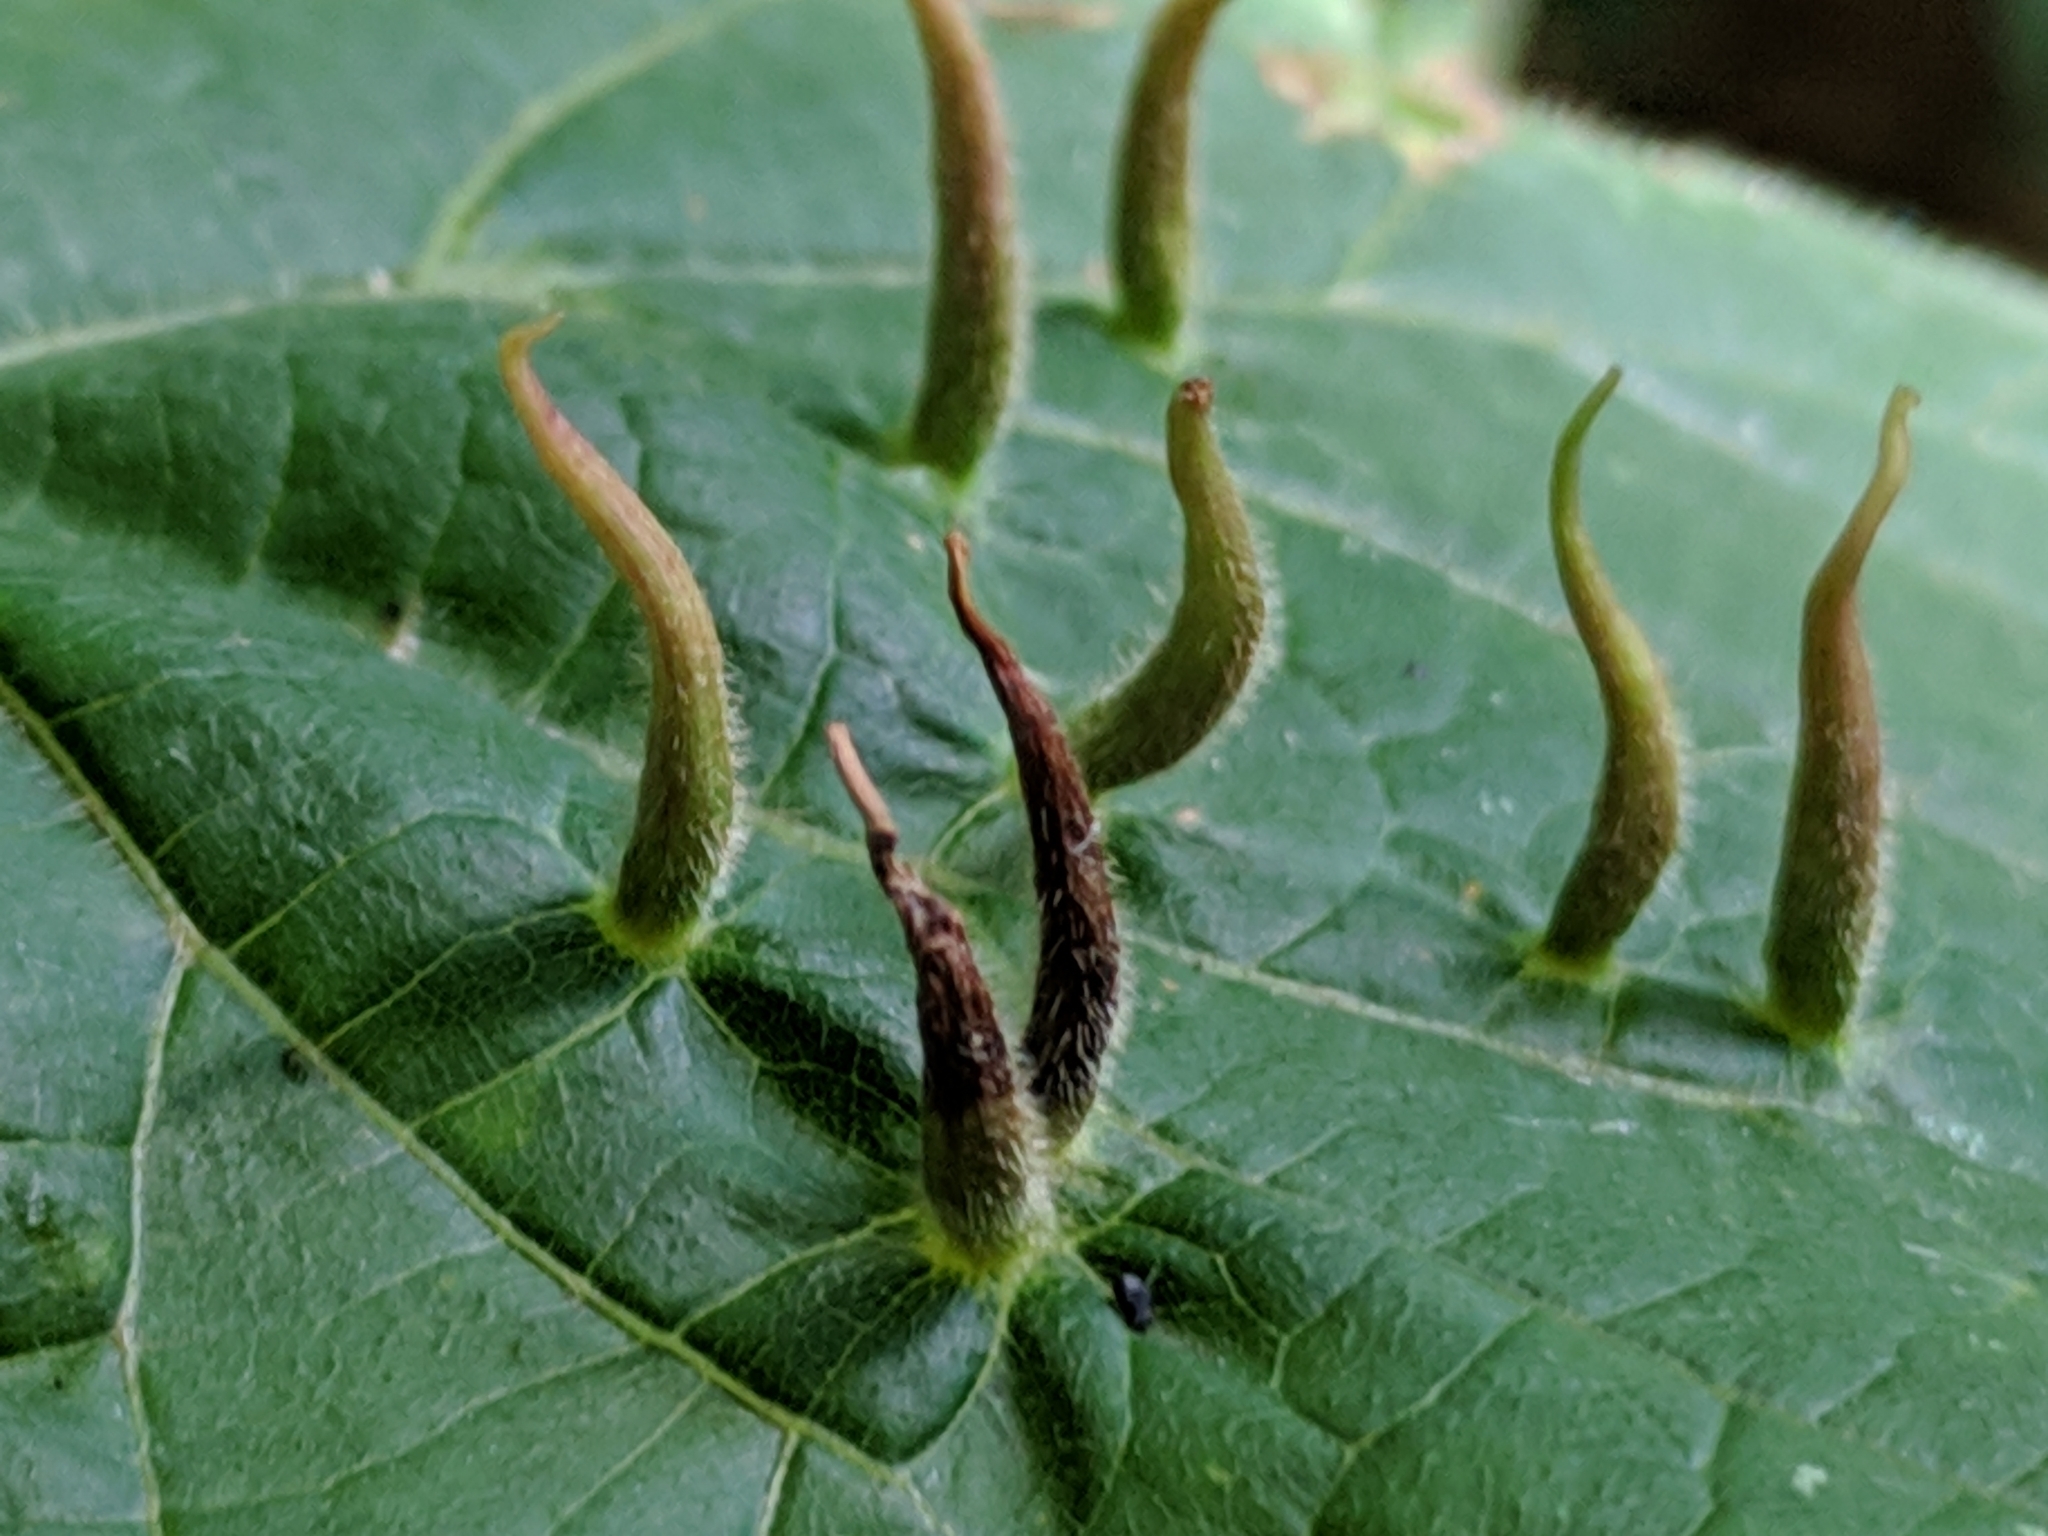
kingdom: Animalia
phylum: Arthropoda
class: Arachnida
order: Trombidiformes
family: Eriophyidae
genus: Eriophyes
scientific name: Eriophyes tiliae
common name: Red nail gall mite
